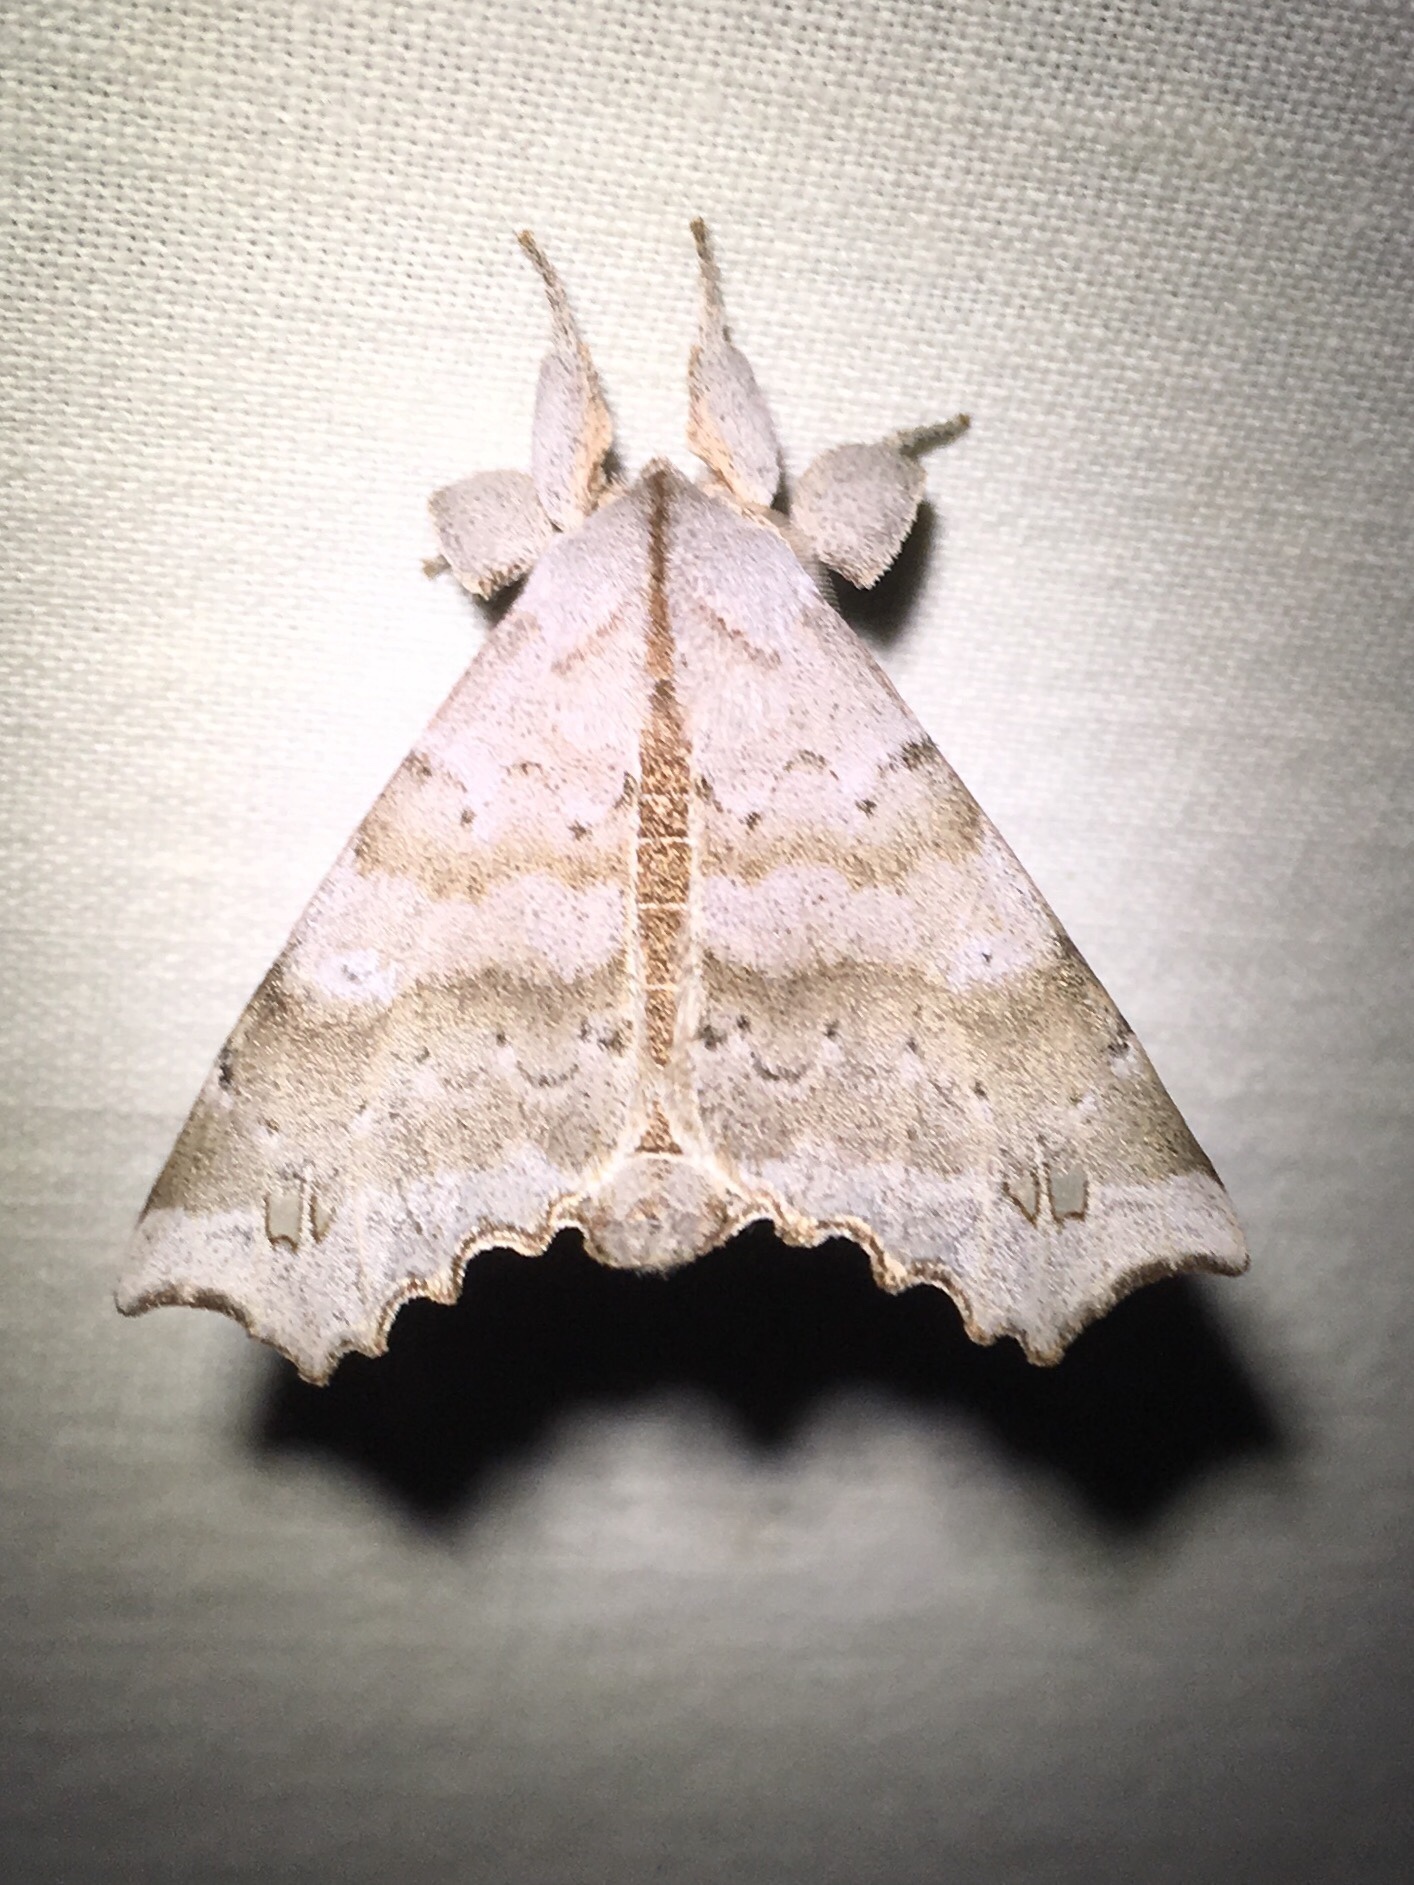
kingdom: Animalia
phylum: Arthropoda
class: Insecta
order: Lepidoptera
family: Apatelodidae
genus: Olceclostera
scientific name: Olceclostera angelica
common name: Angel moth
